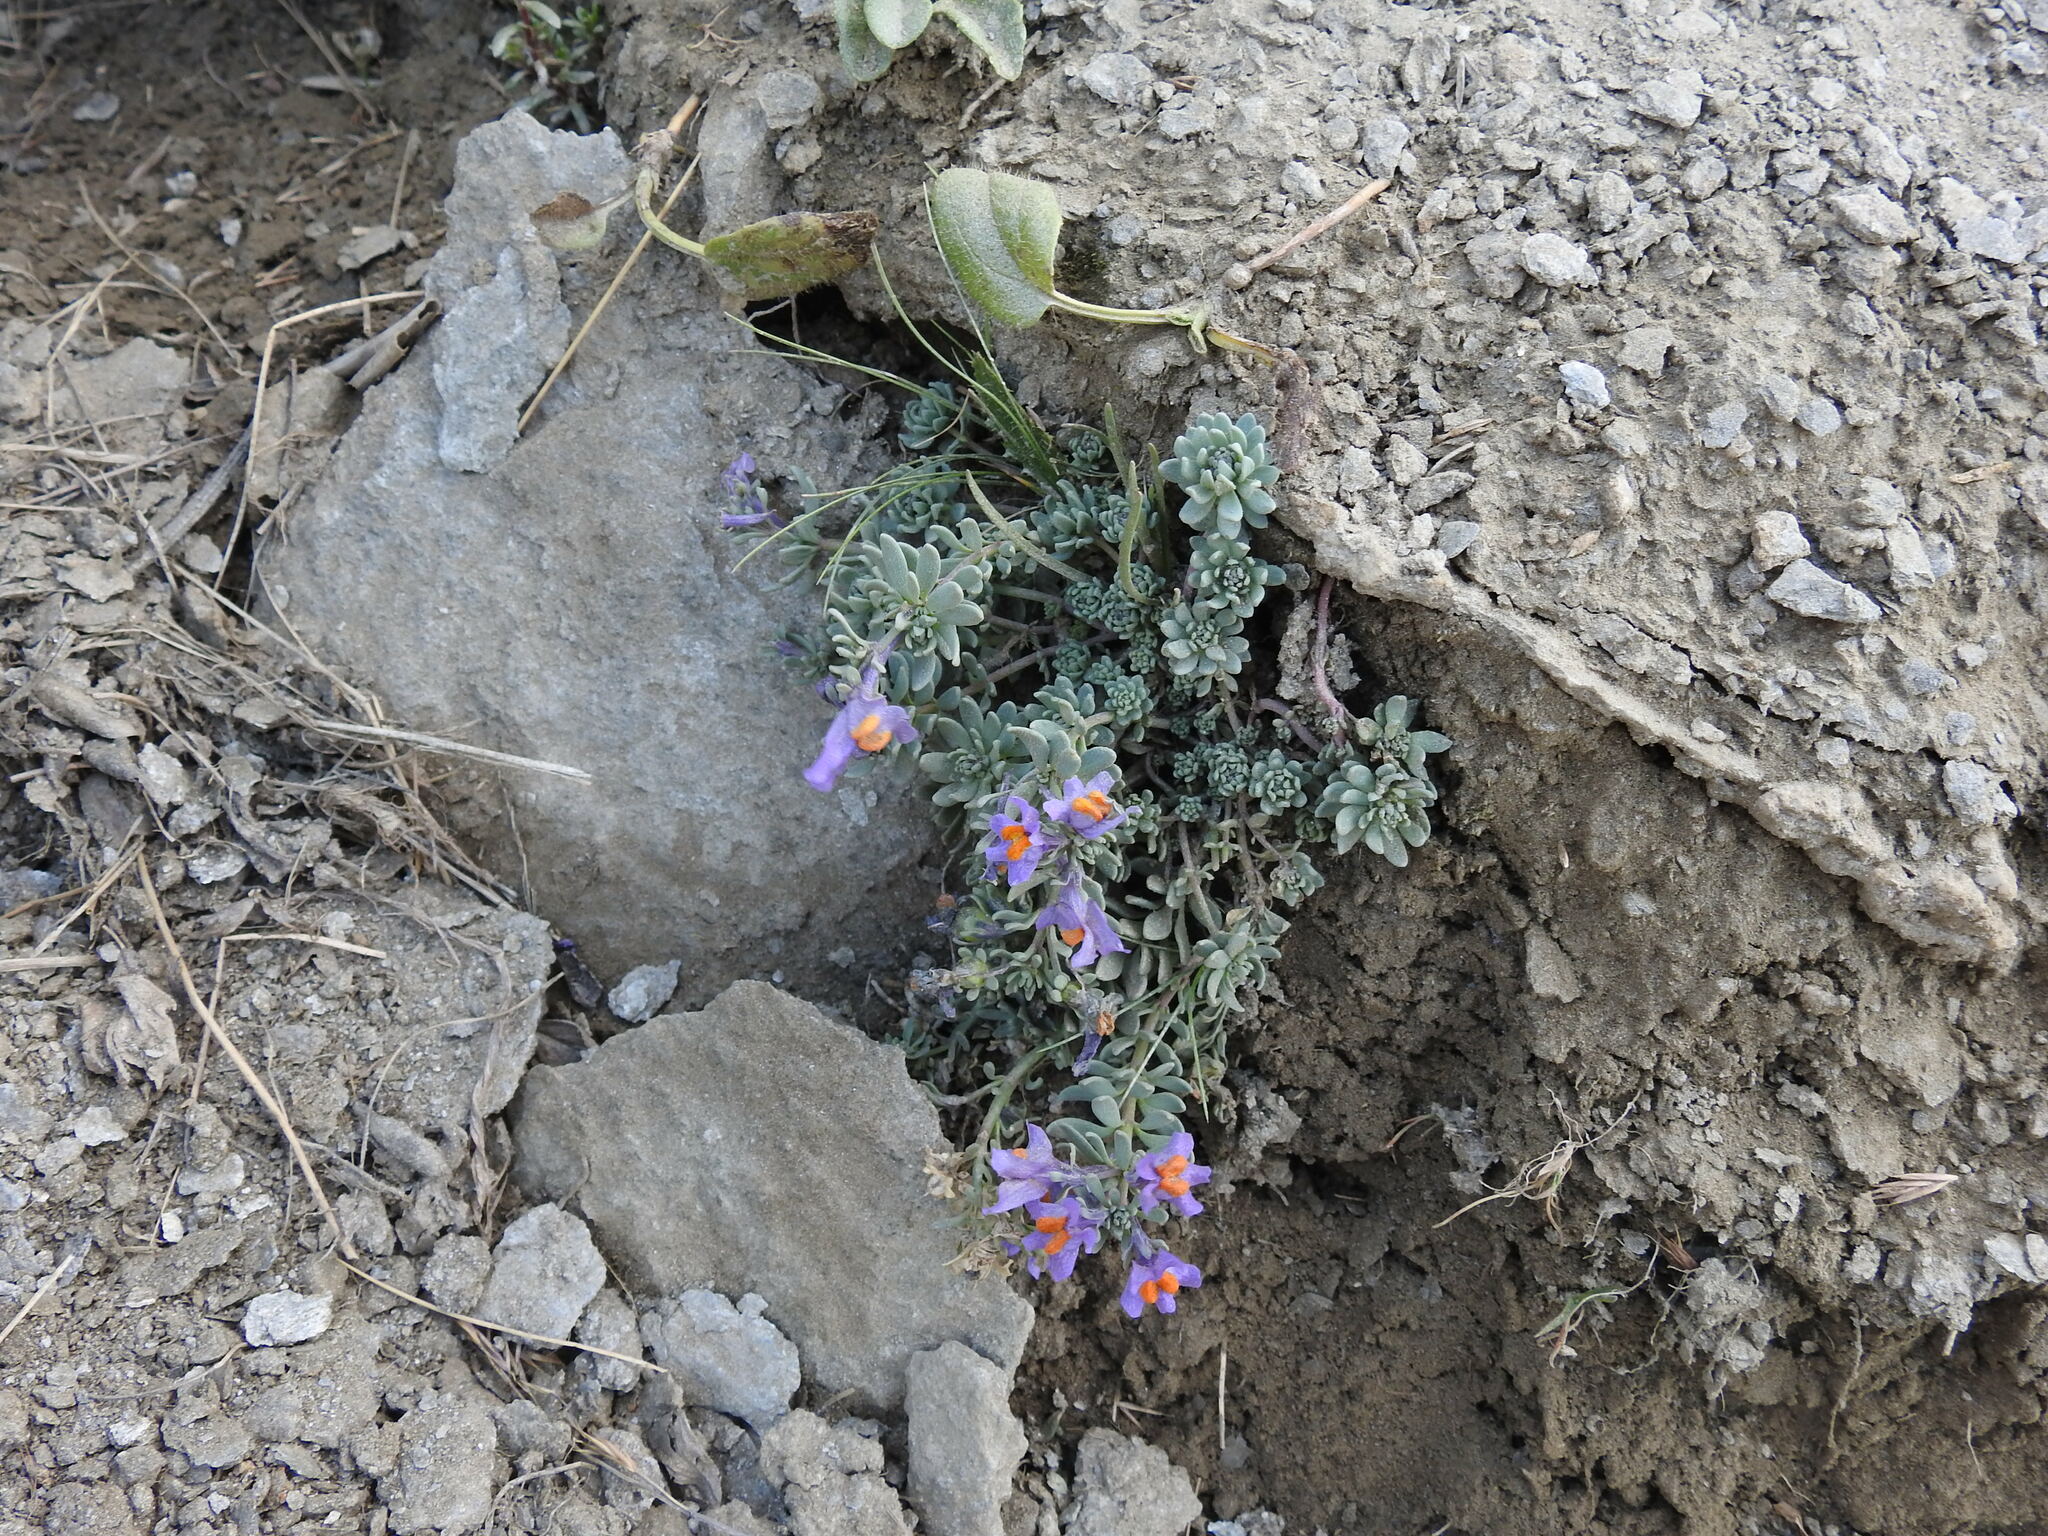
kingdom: Plantae
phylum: Tracheophyta
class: Magnoliopsida
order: Lamiales
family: Plantaginaceae
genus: Linaria
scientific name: Linaria alpina
